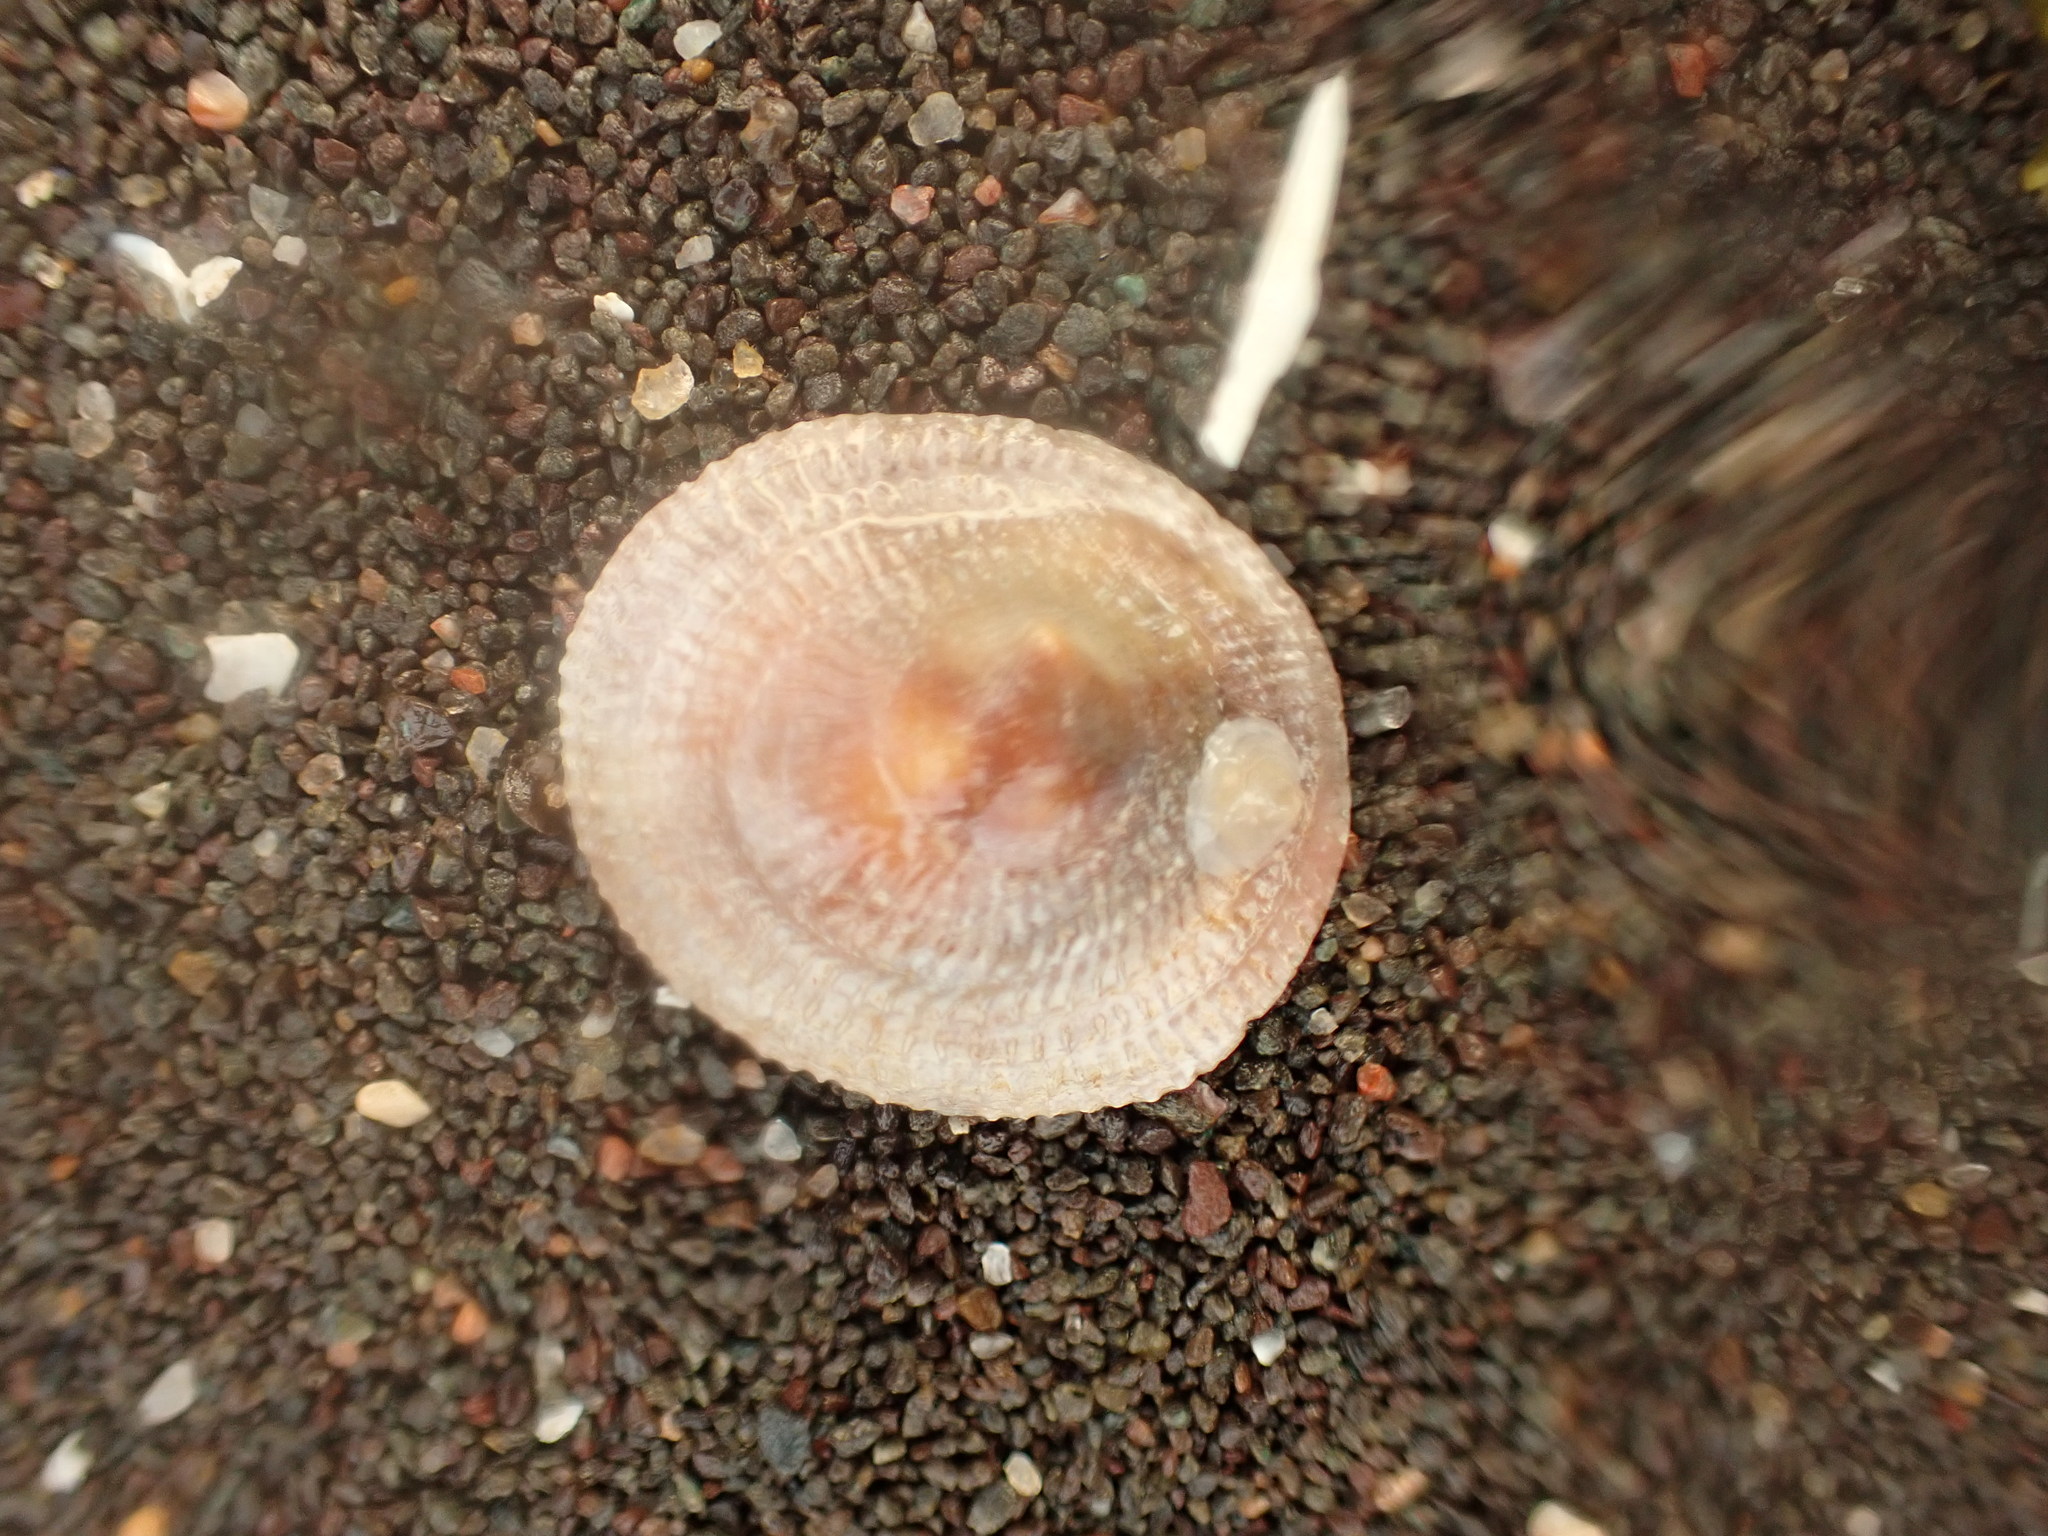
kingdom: Animalia
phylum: Mollusca
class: Gastropoda
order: Littorinimorpha
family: Calyptraeidae
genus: Crucibulum
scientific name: Crucibulum striatum
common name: Striate cup-and -saucer
